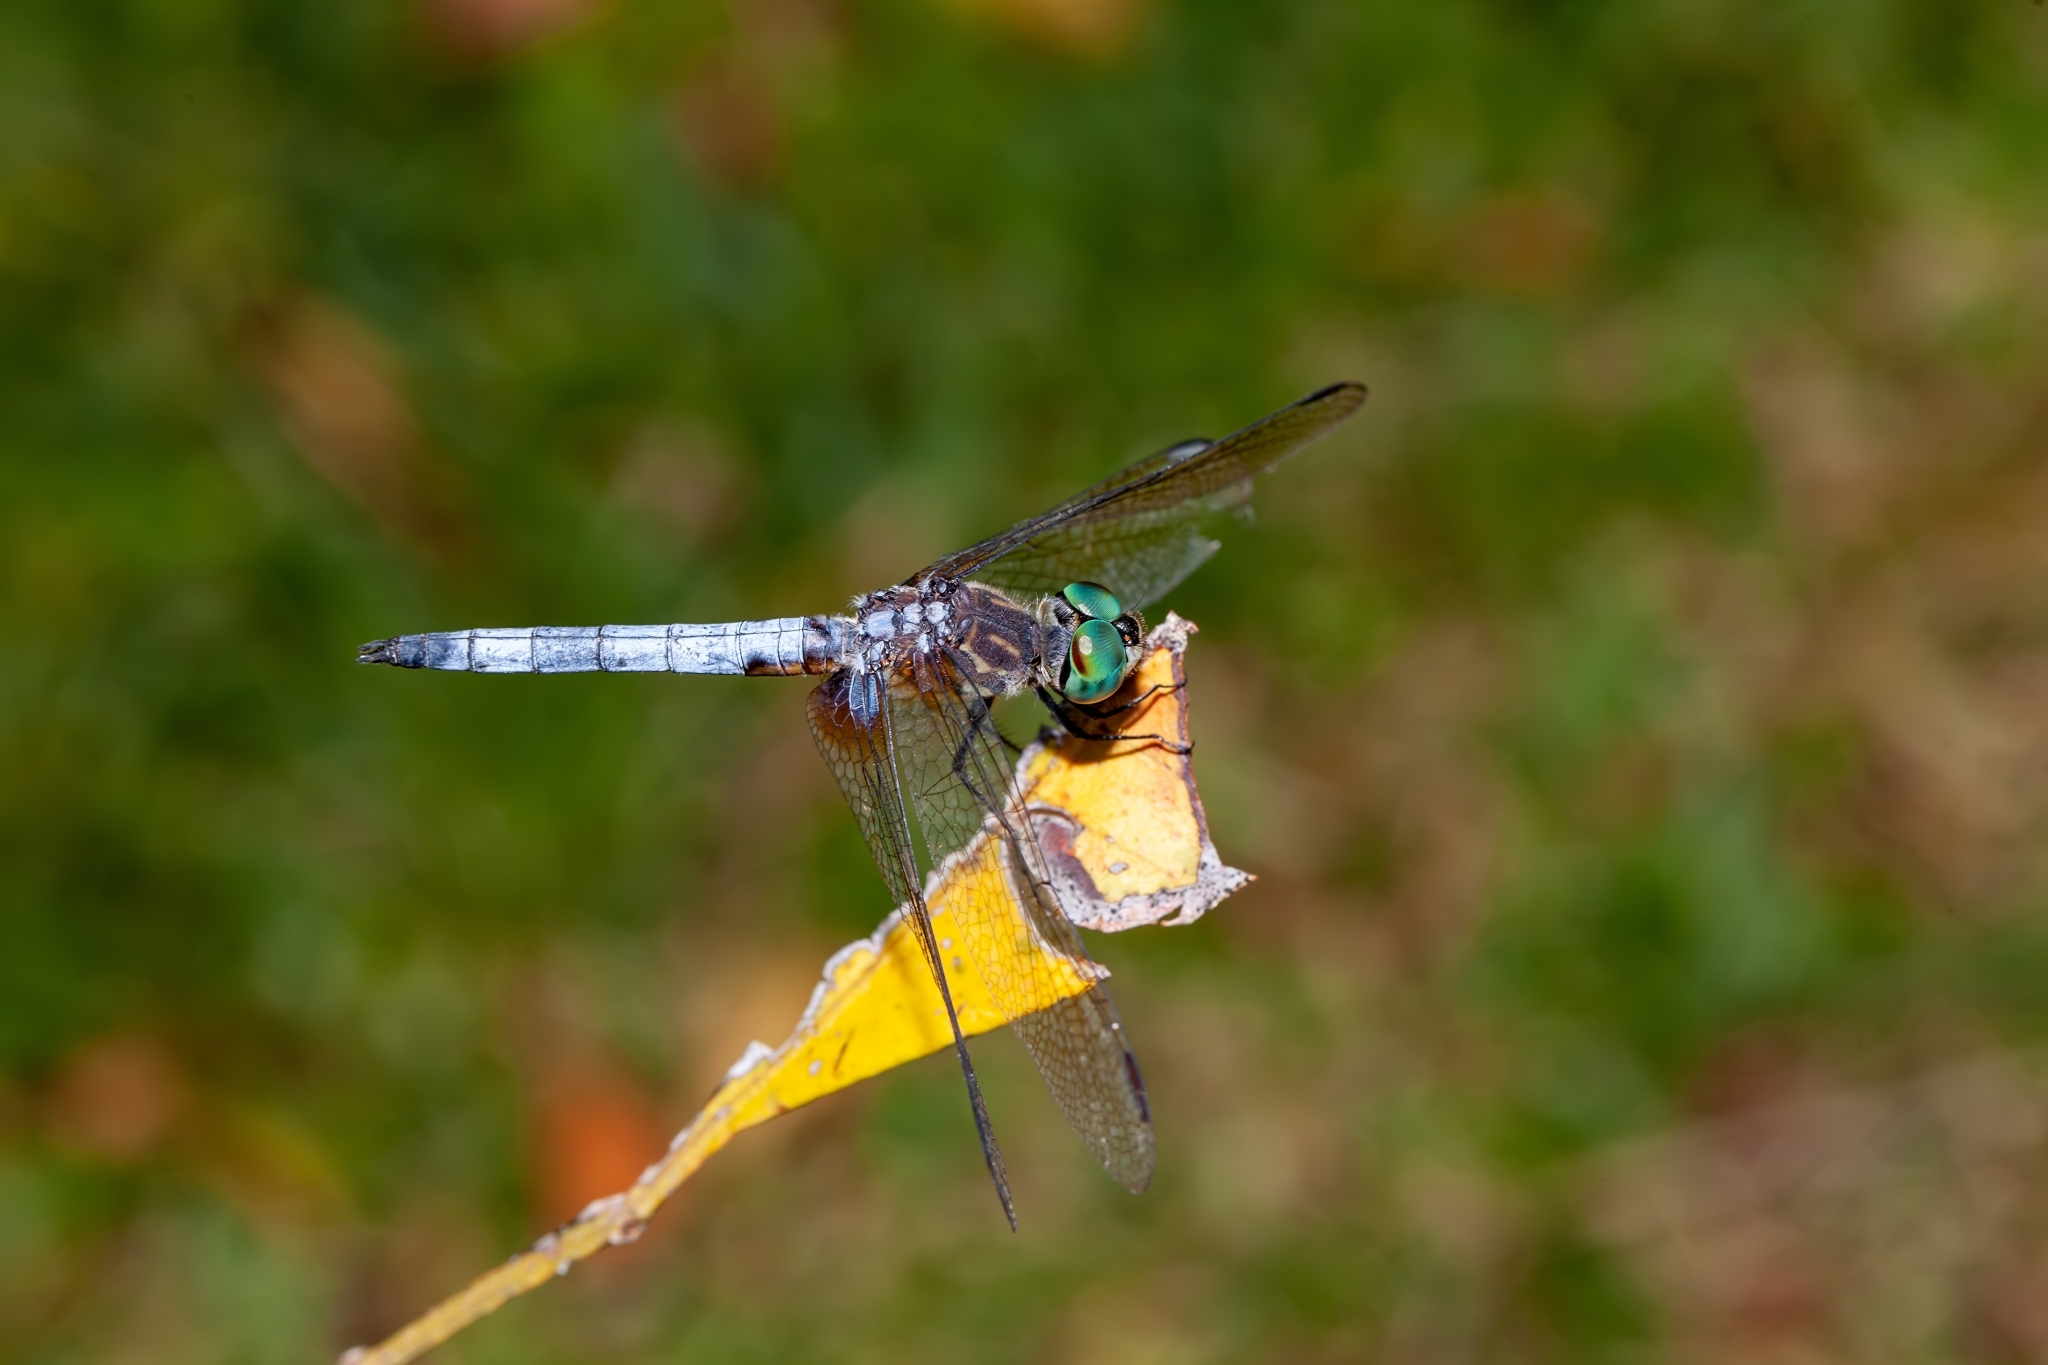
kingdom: Animalia
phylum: Arthropoda
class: Insecta
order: Odonata
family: Libellulidae
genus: Pachydiplax
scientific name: Pachydiplax longipennis
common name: Blue dasher
